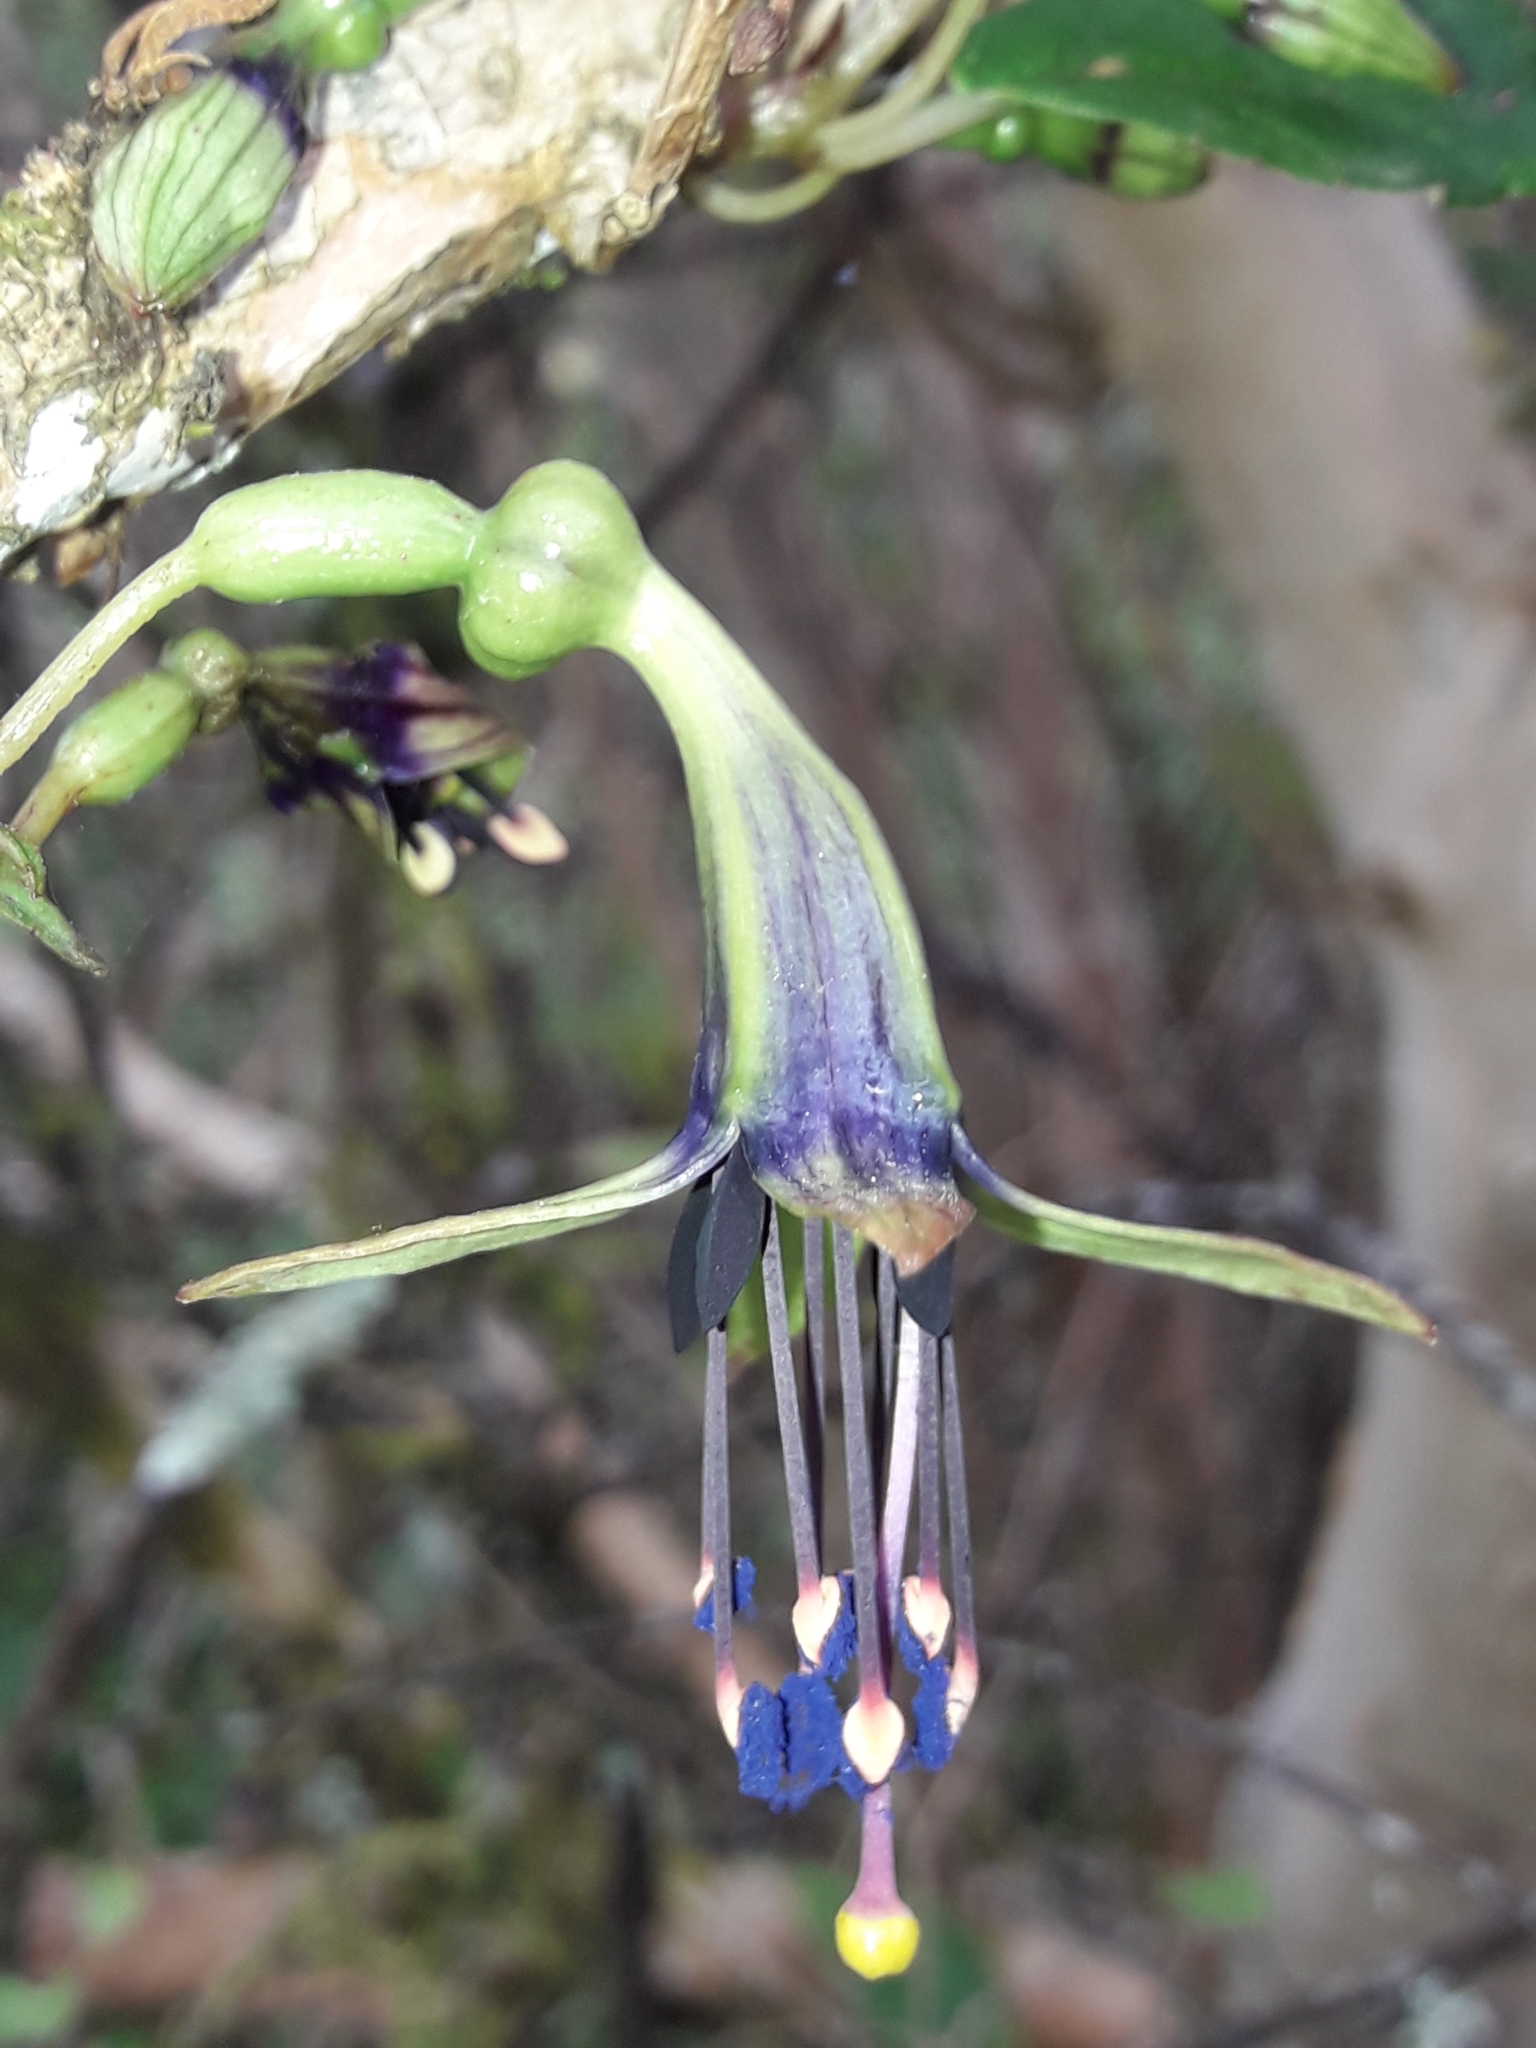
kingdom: Plantae
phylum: Tracheophyta
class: Magnoliopsida
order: Myrtales
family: Onagraceae
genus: Fuchsia
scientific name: Fuchsia excorticata
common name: Tree fuchsia
